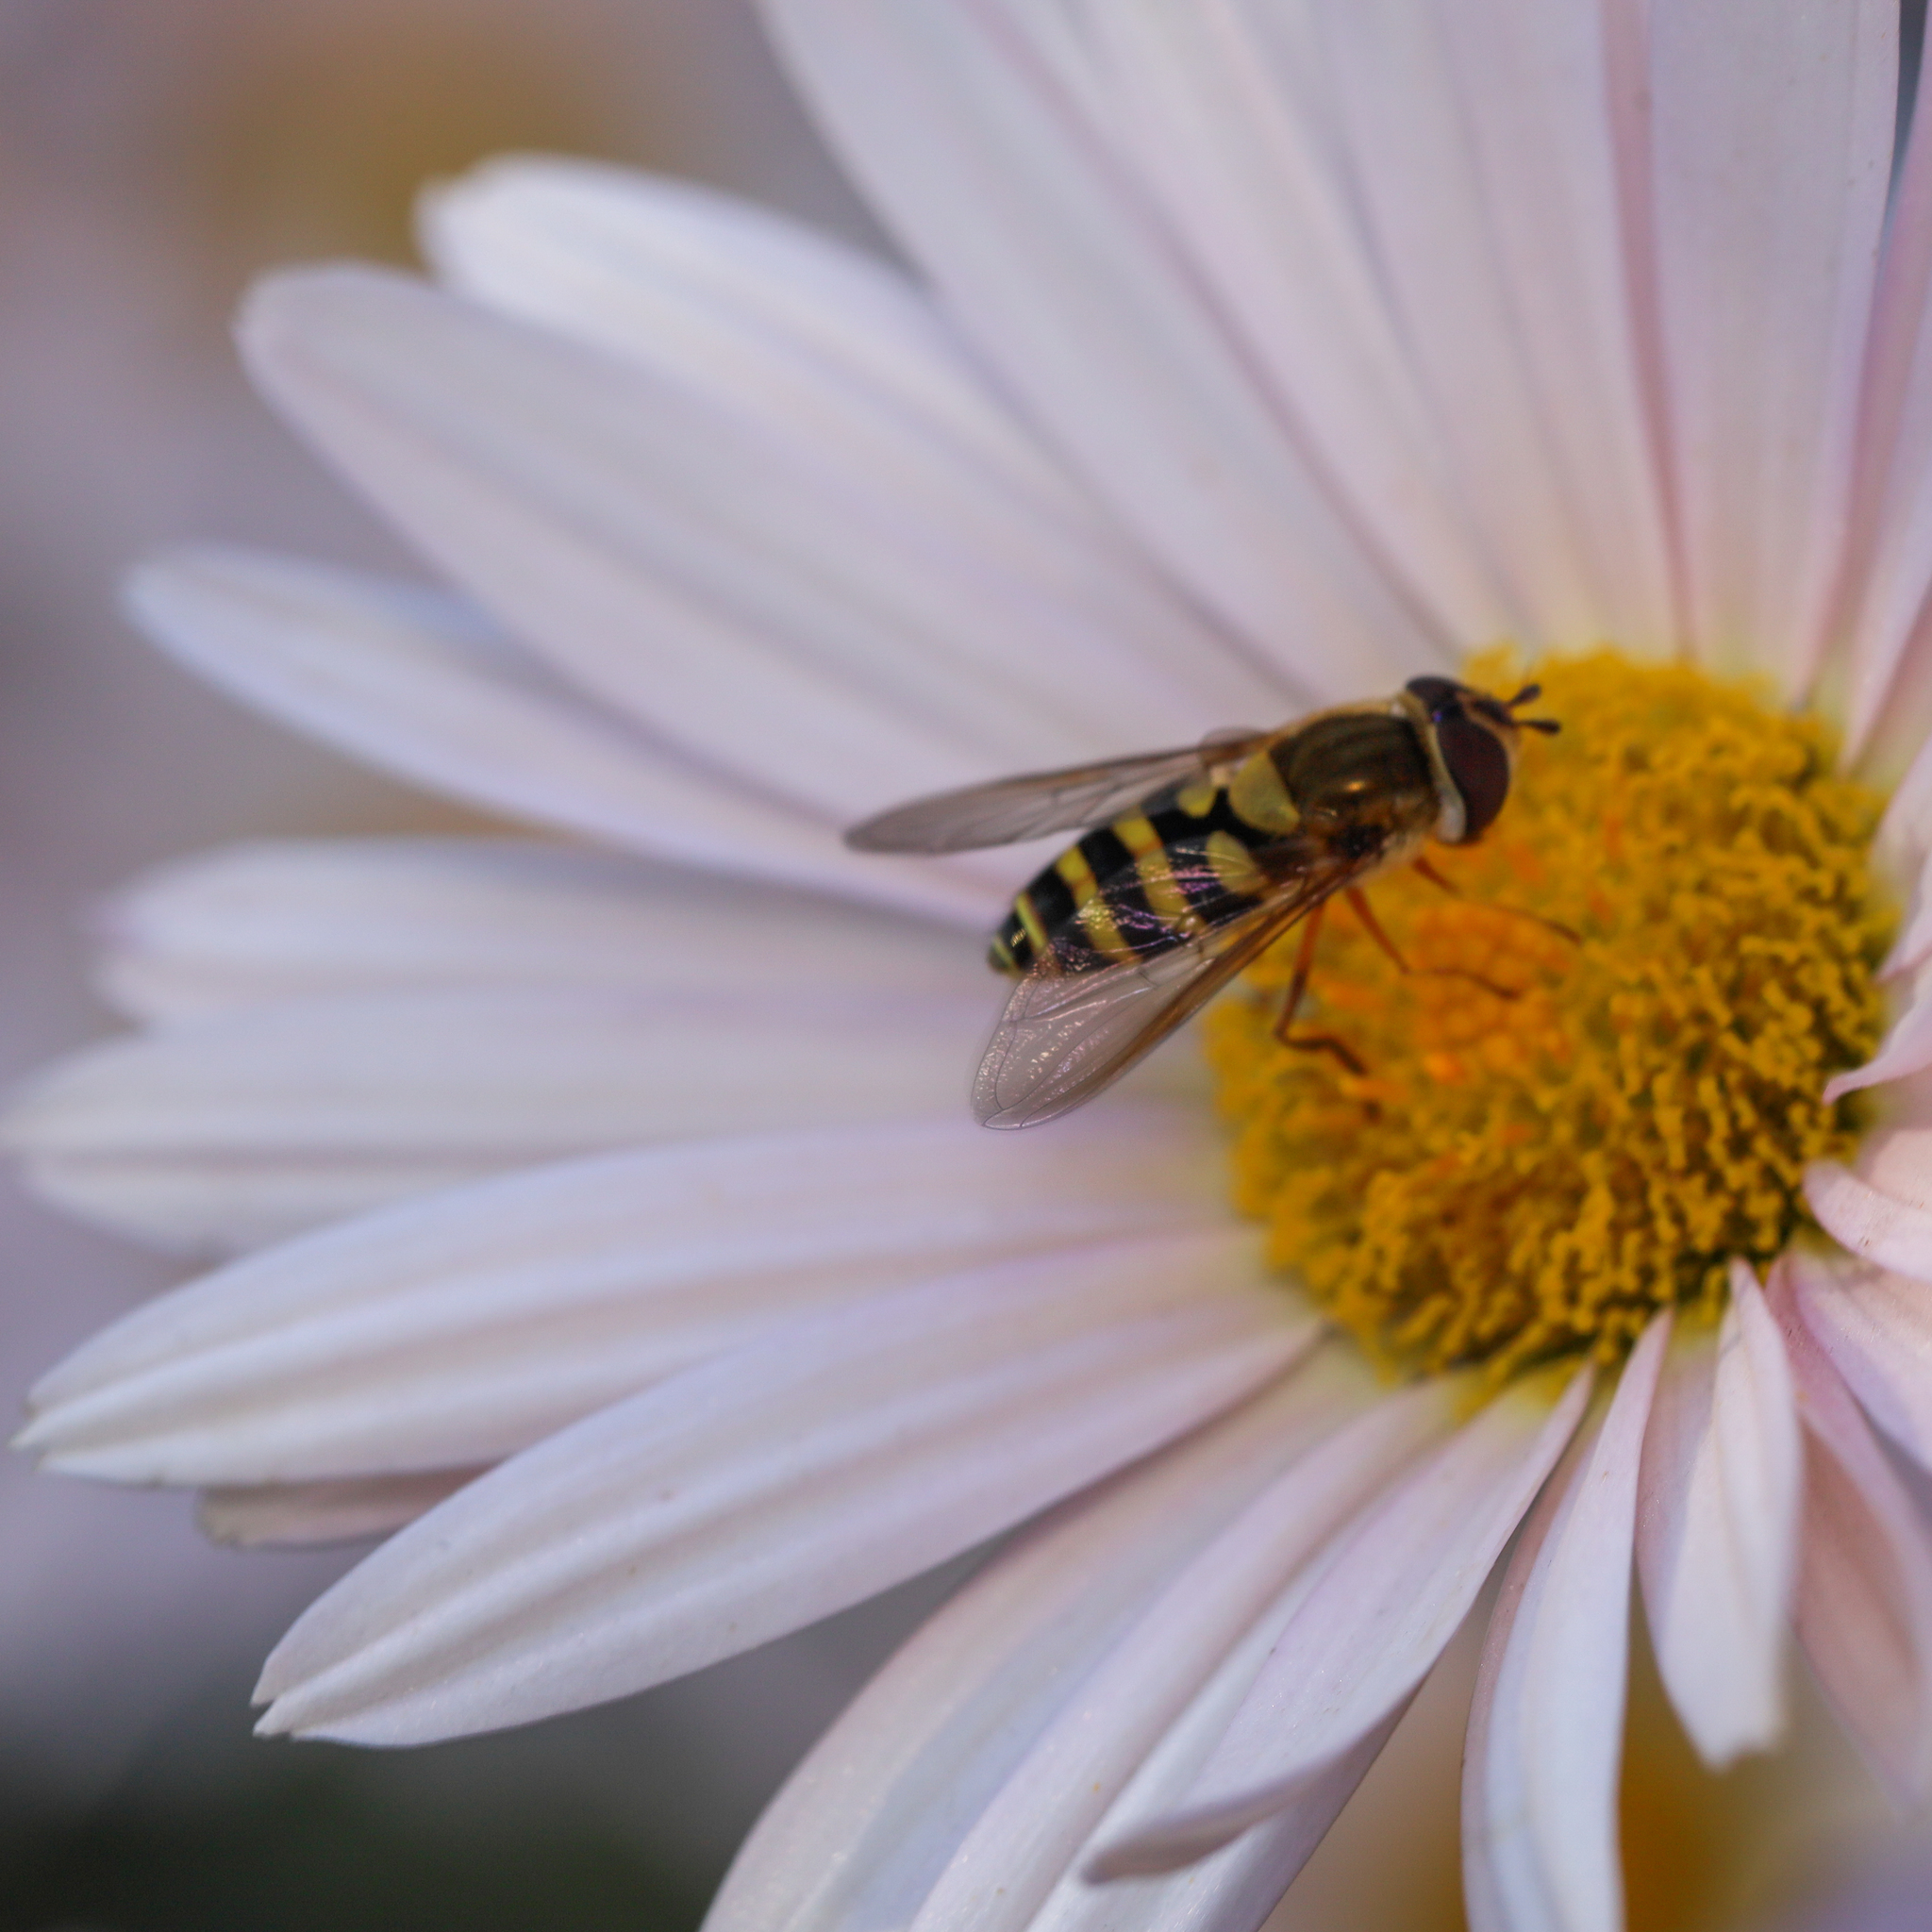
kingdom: Animalia
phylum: Arthropoda
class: Insecta
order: Diptera
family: Syrphidae
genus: Syrphus
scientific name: Syrphus rectus
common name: Yellow-legged flower fly
